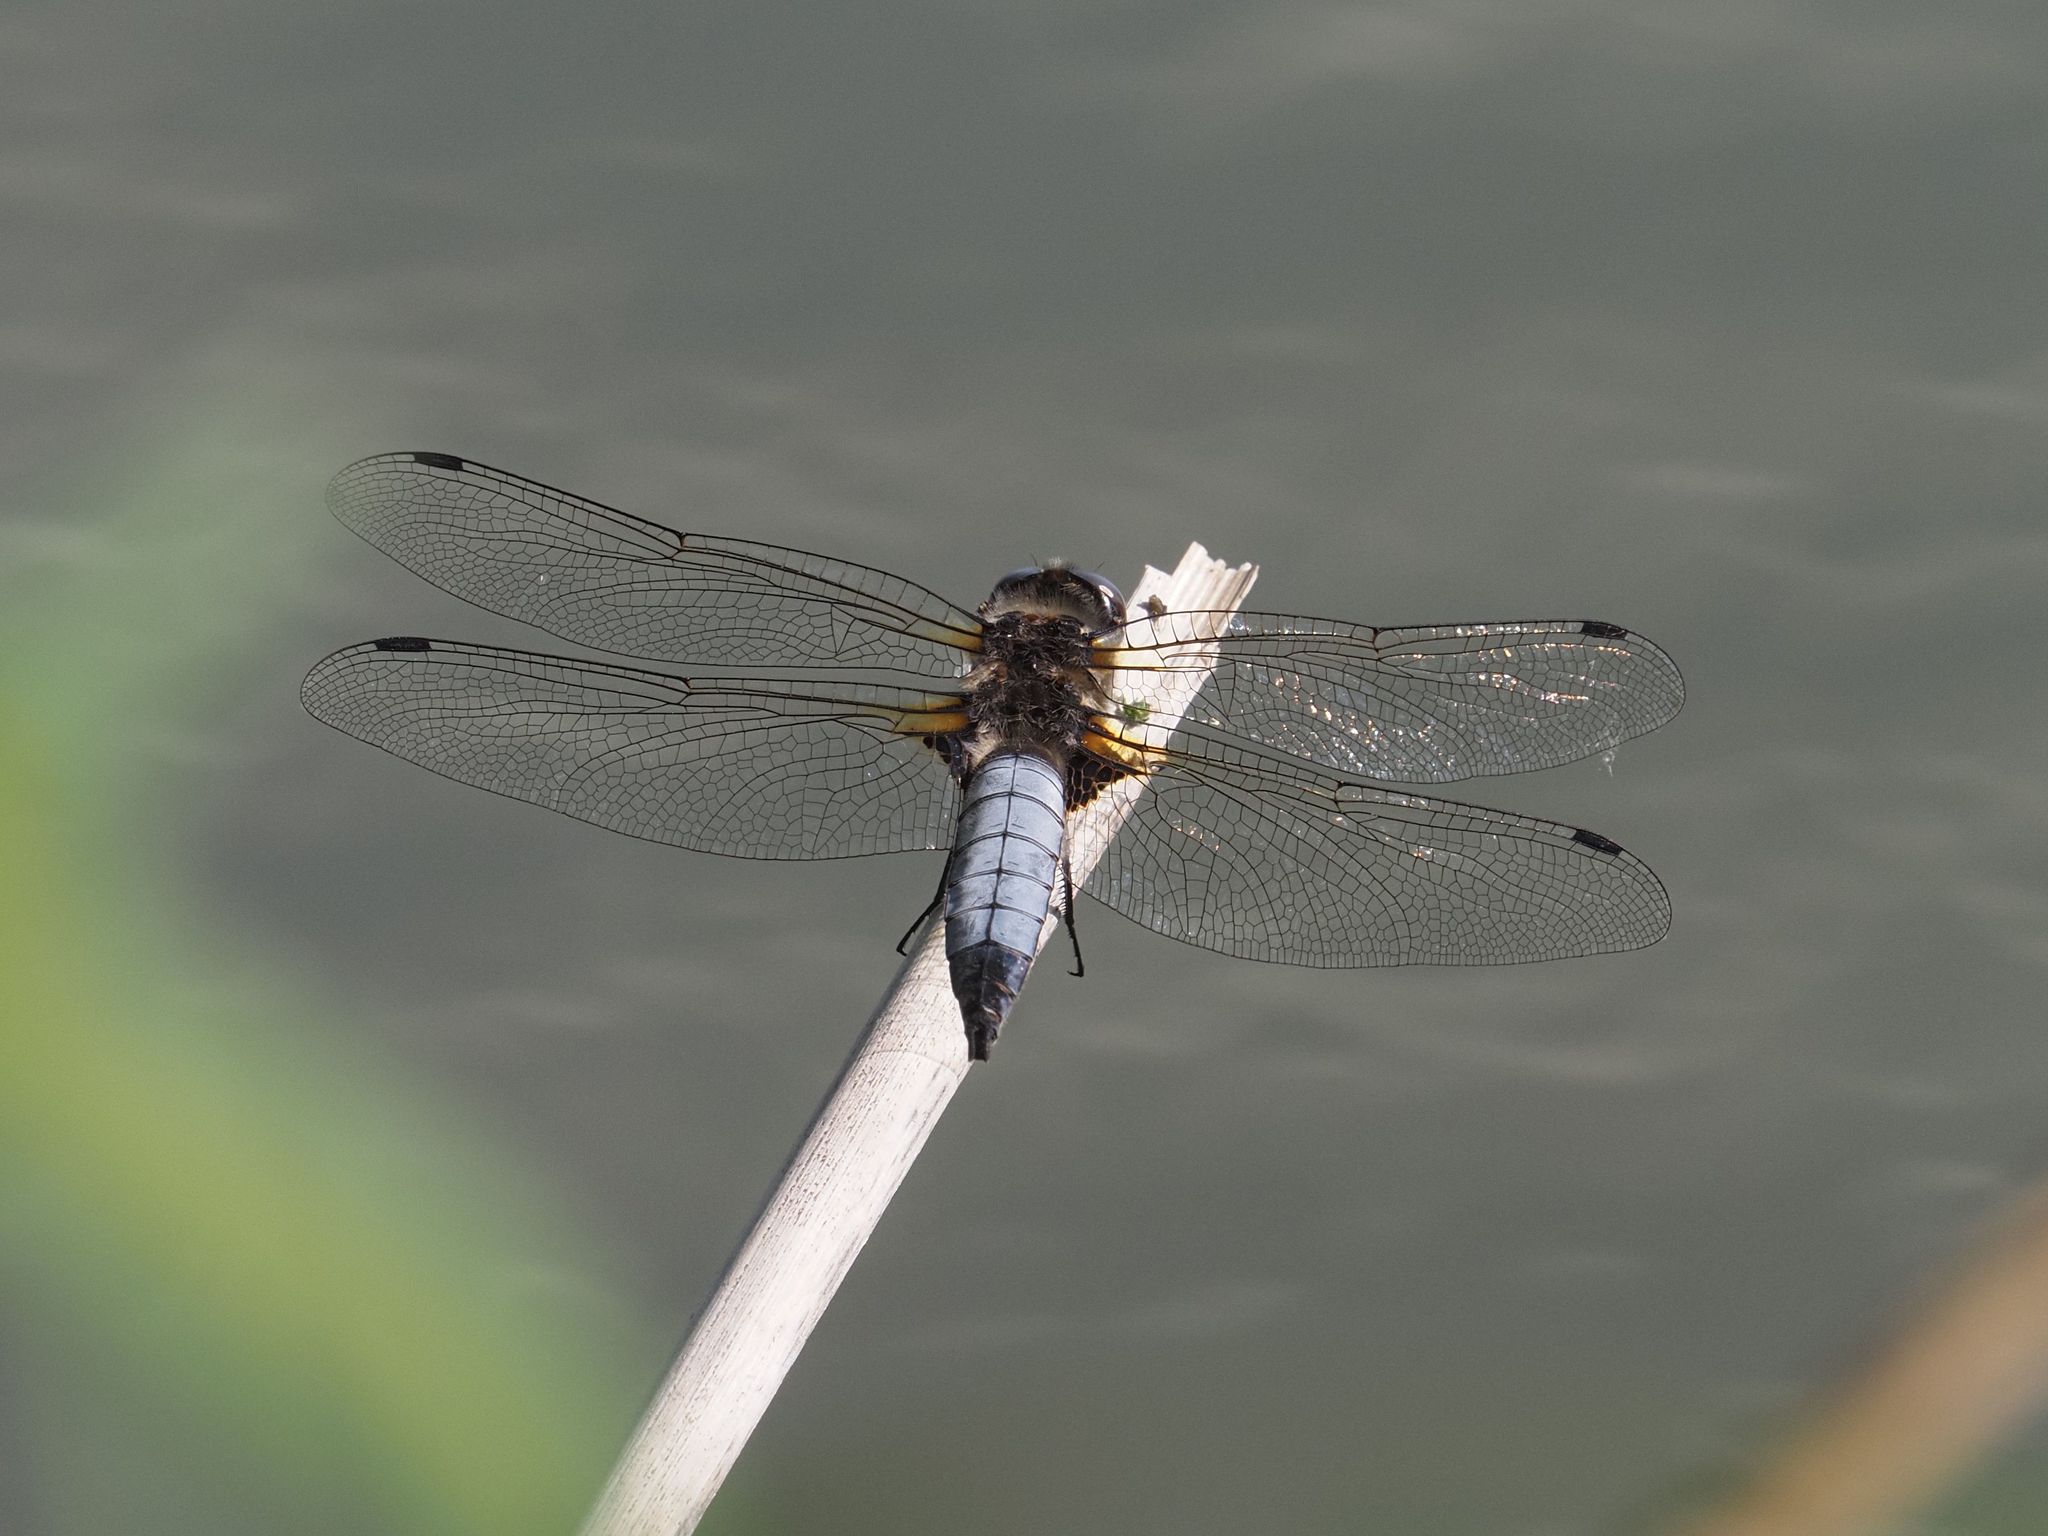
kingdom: Animalia
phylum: Arthropoda
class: Insecta
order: Odonata
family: Libellulidae
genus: Libellula
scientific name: Libellula fulva
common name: Blue chaser
